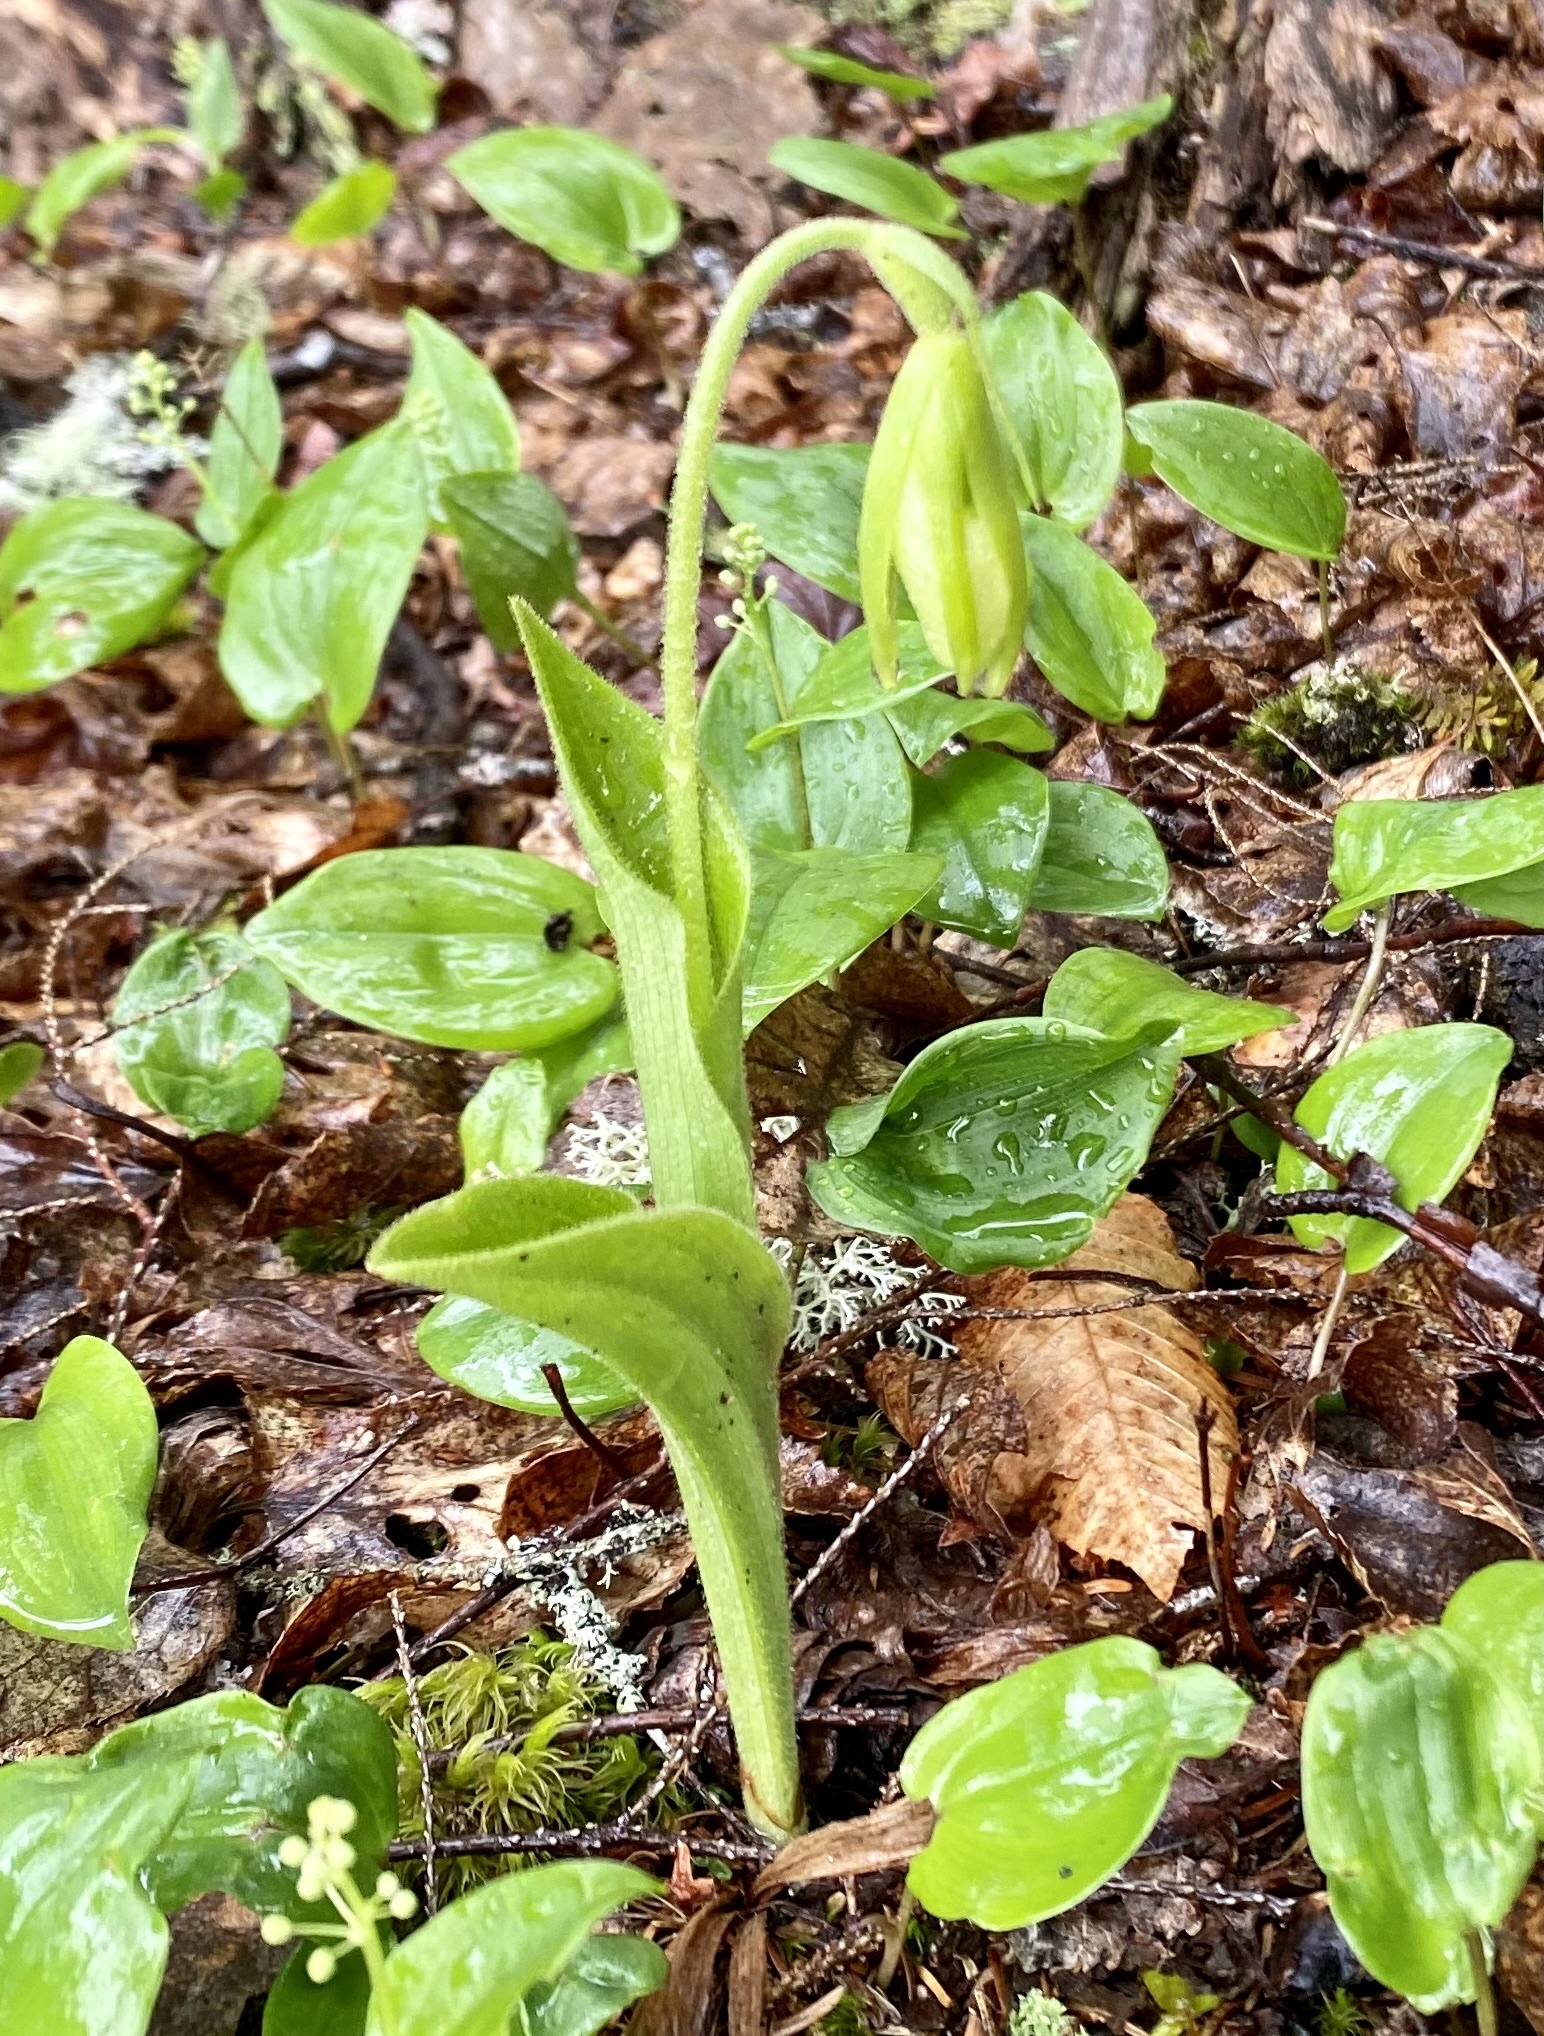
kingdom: Plantae
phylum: Tracheophyta
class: Liliopsida
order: Asparagales
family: Orchidaceae
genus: Cypripedium
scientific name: Cypripedium acaule
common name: Pink lady's-slipper
